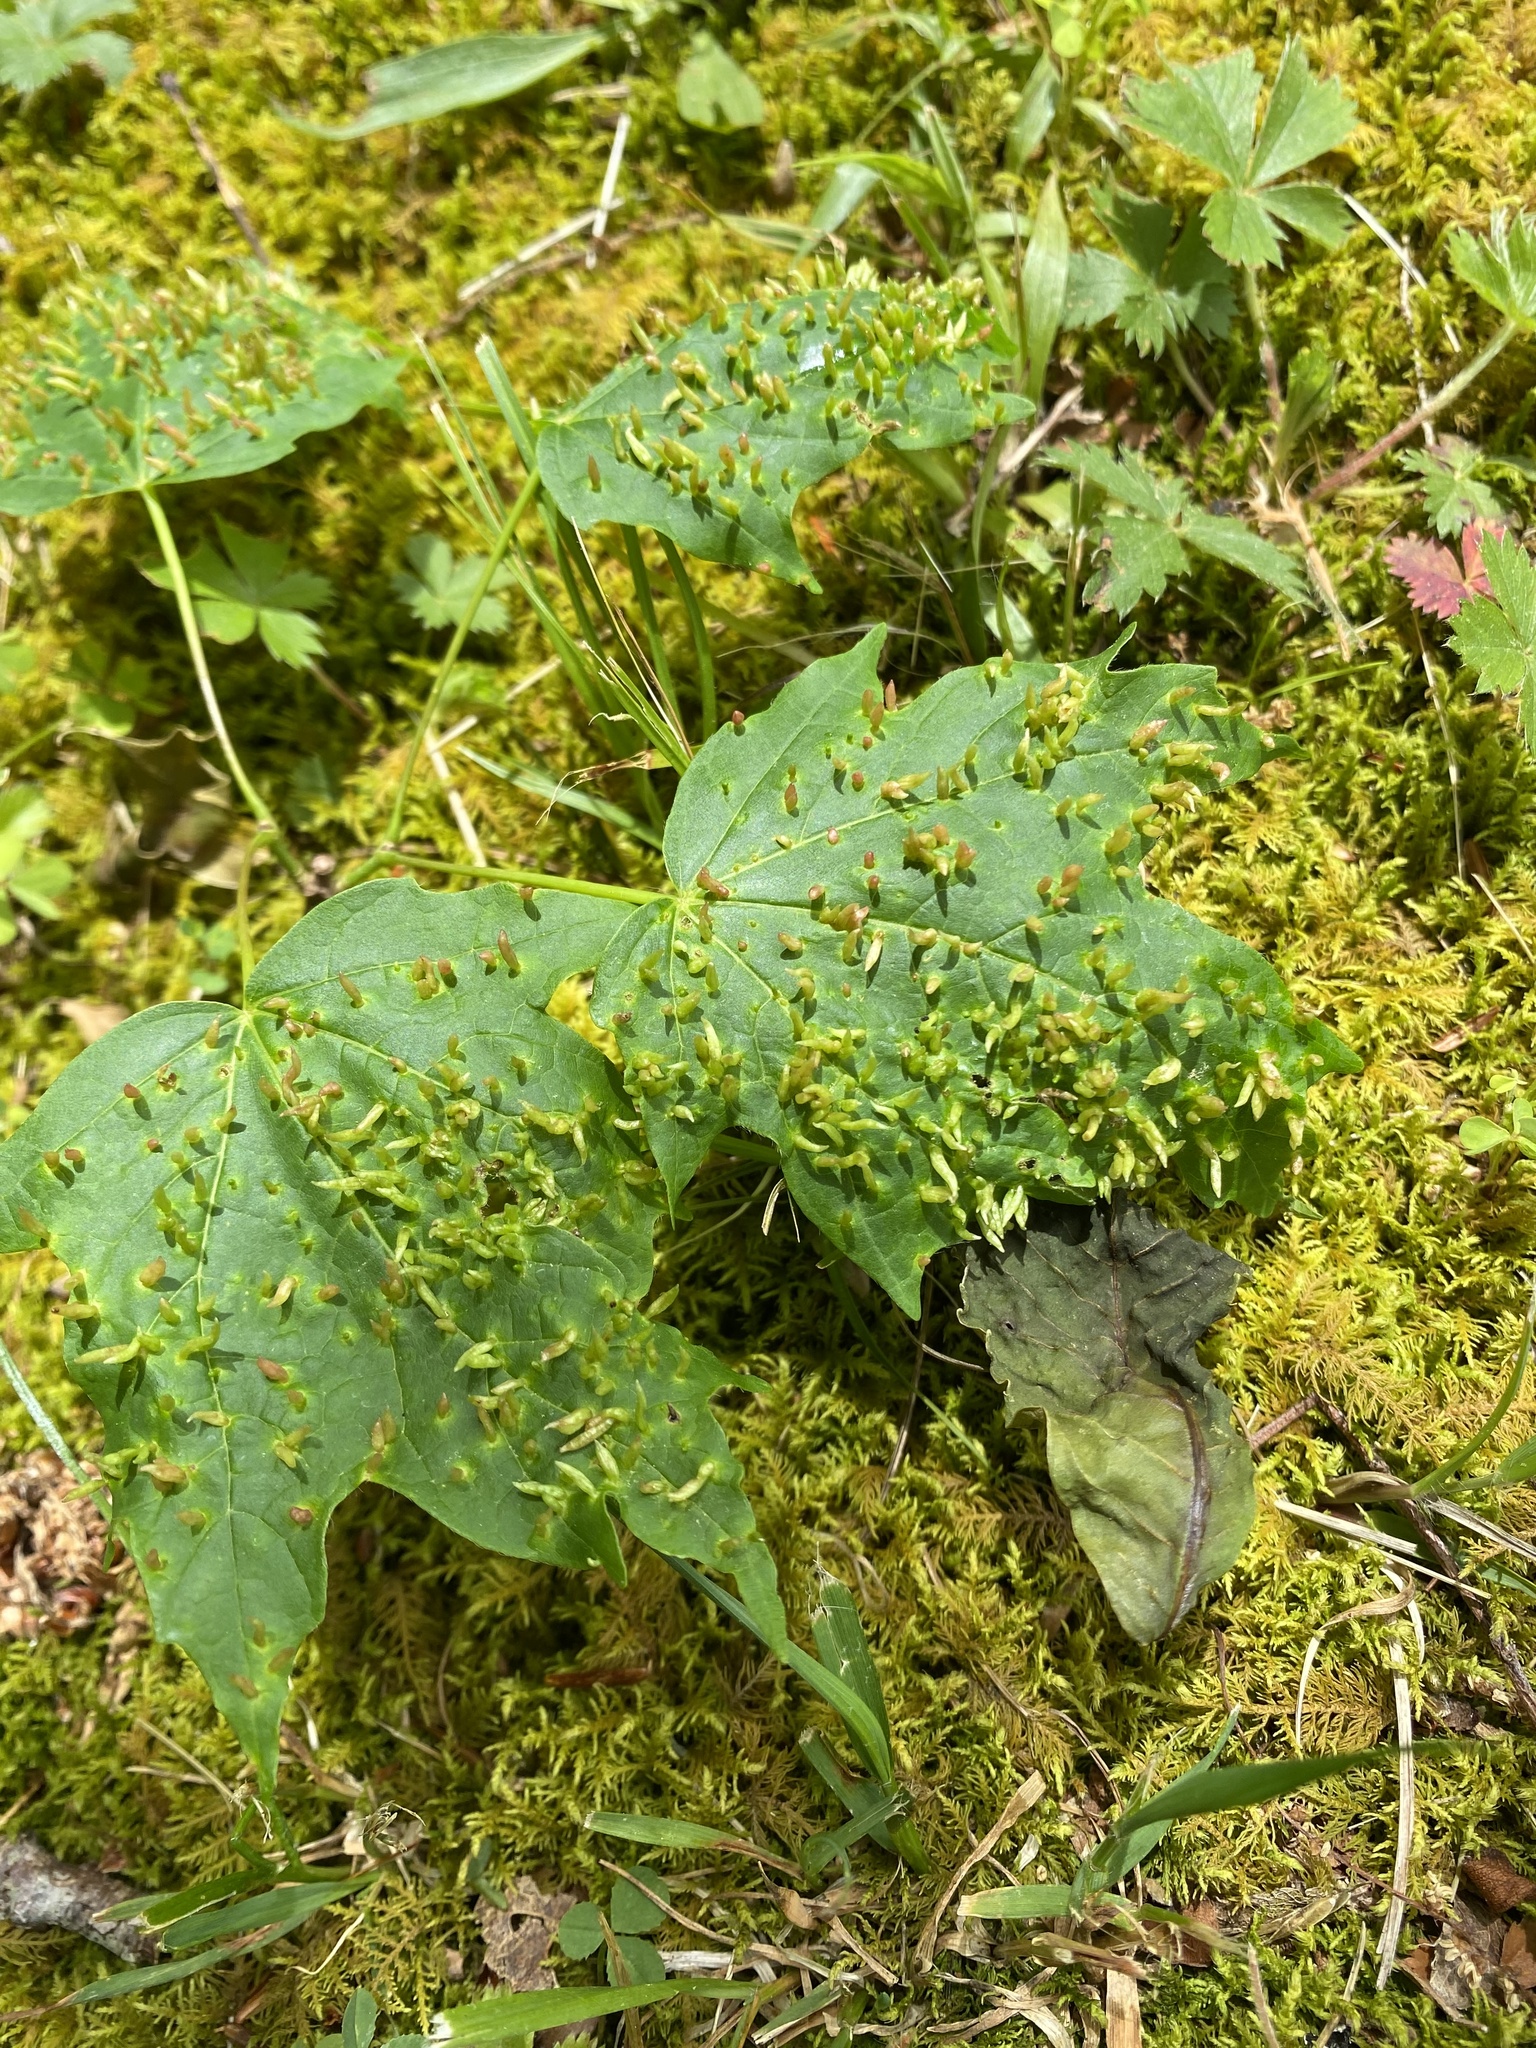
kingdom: Animalia
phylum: Arthropoda
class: Arachnida
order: Trombidiformes
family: Eriophyidae
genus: Vasates
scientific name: Vasates aceriscrumena
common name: Maple spindle gall mite
